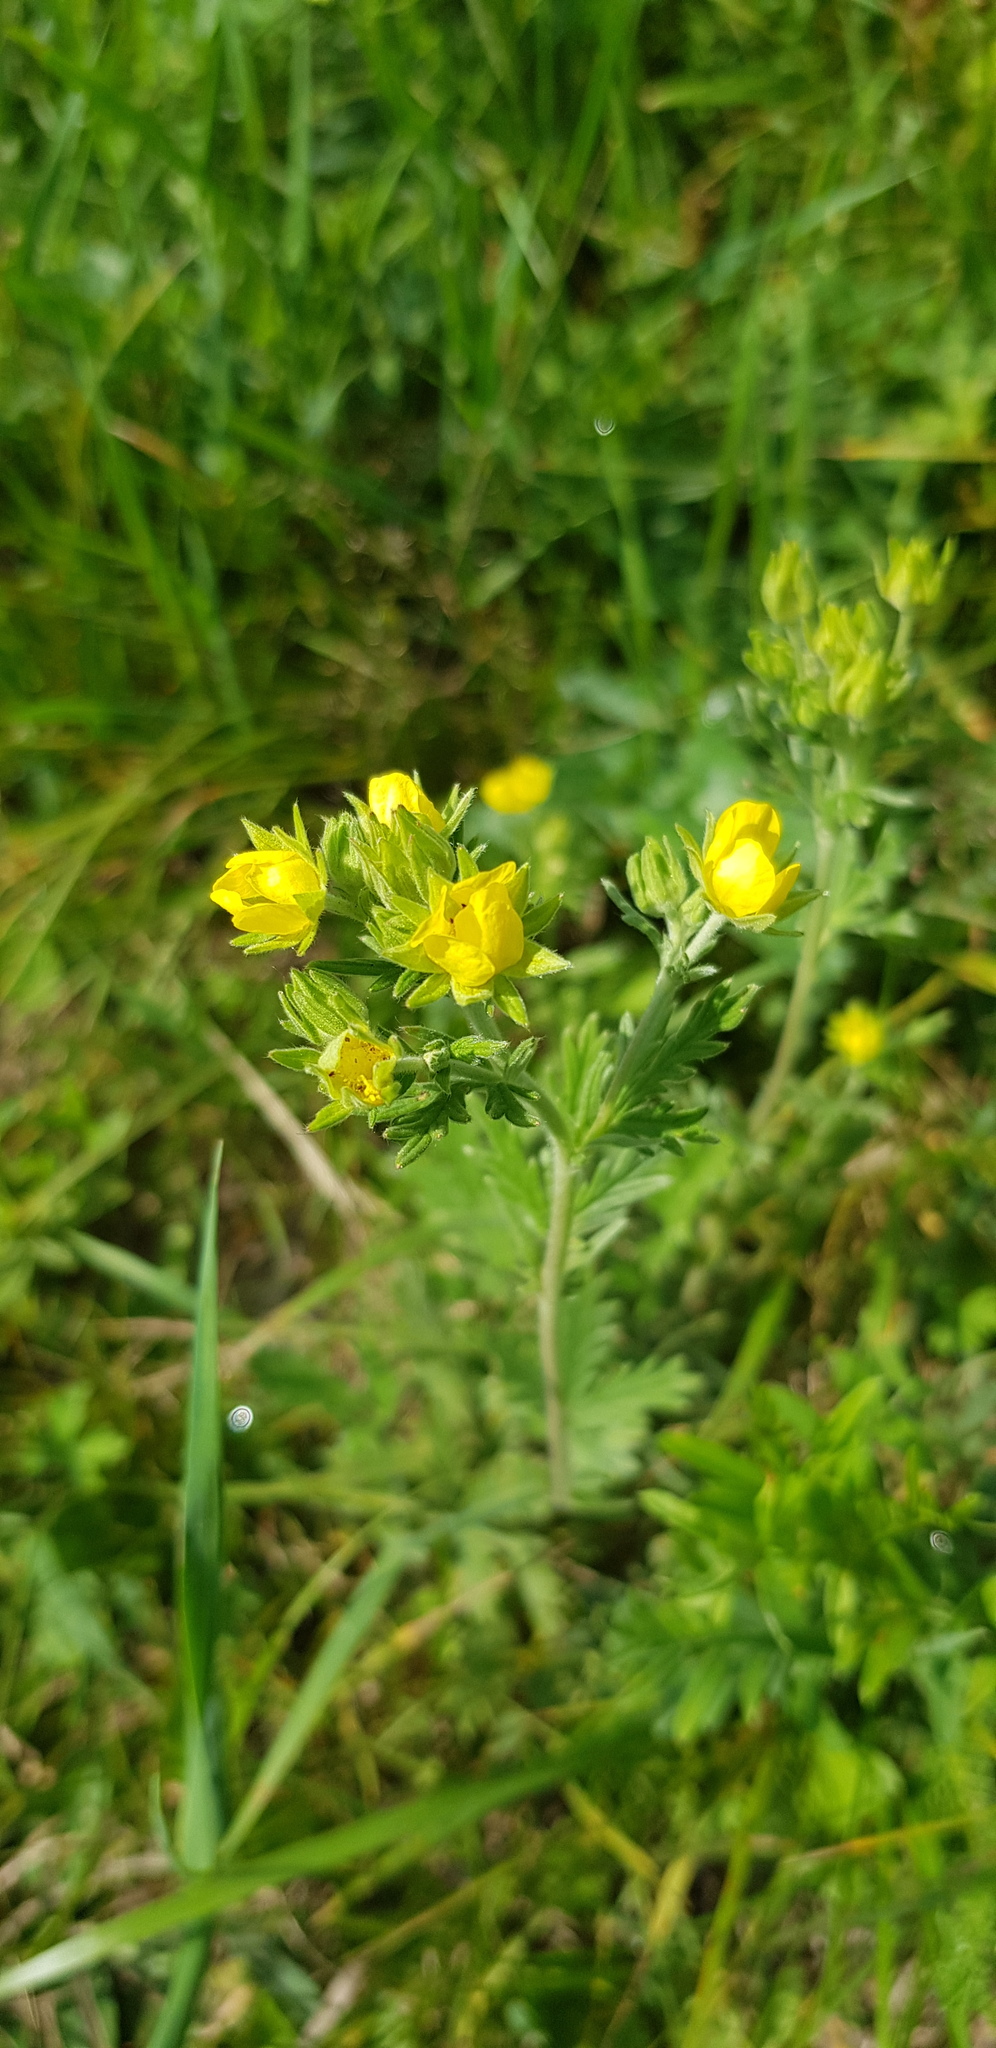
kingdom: Plantae
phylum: Tracheophyta
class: Magnoliopsida
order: Rosales
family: Rosaceae
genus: Potentilla
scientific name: Potentilla tanacetifolia
